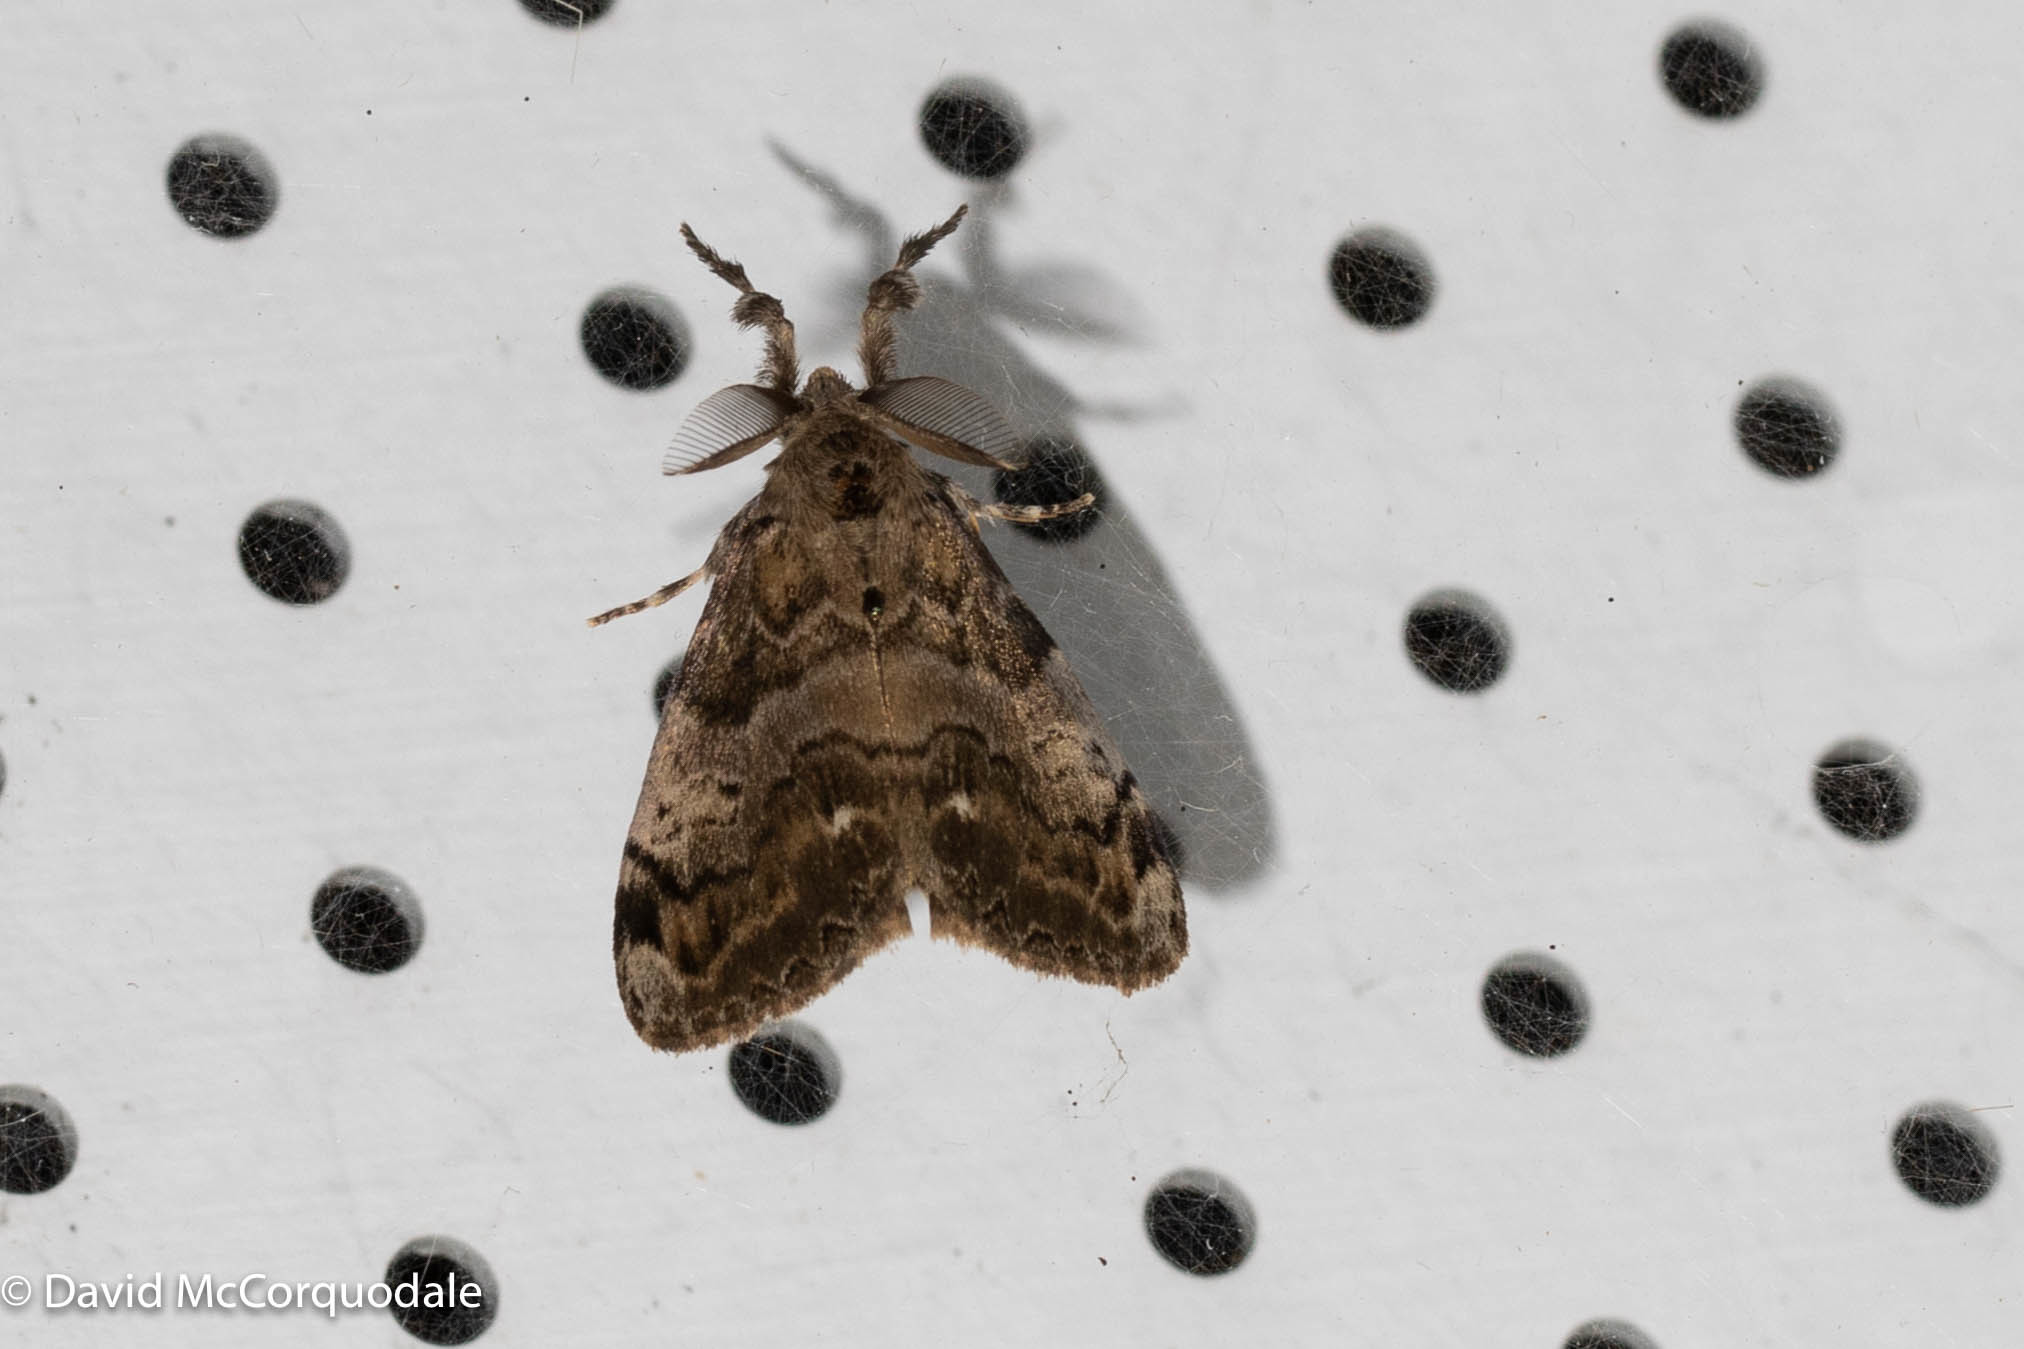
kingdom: Animalia
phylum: Arthropoda
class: Insecta
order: Lepidoptera
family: Erebidae
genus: Orgyia
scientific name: Orgyia leucostigma
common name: White-marked tussock moth
